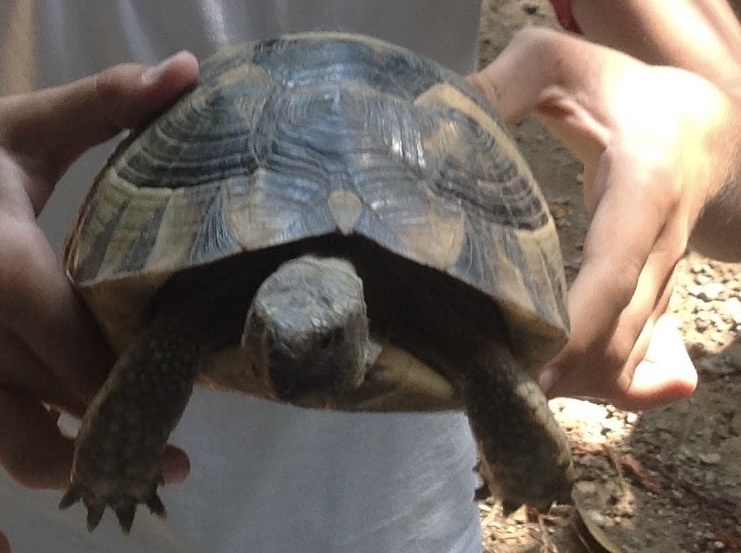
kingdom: Animalia
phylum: Chordata
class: Testudines
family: Testudinidae
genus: Testudo
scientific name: Testudo graeca
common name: Common tortoise
